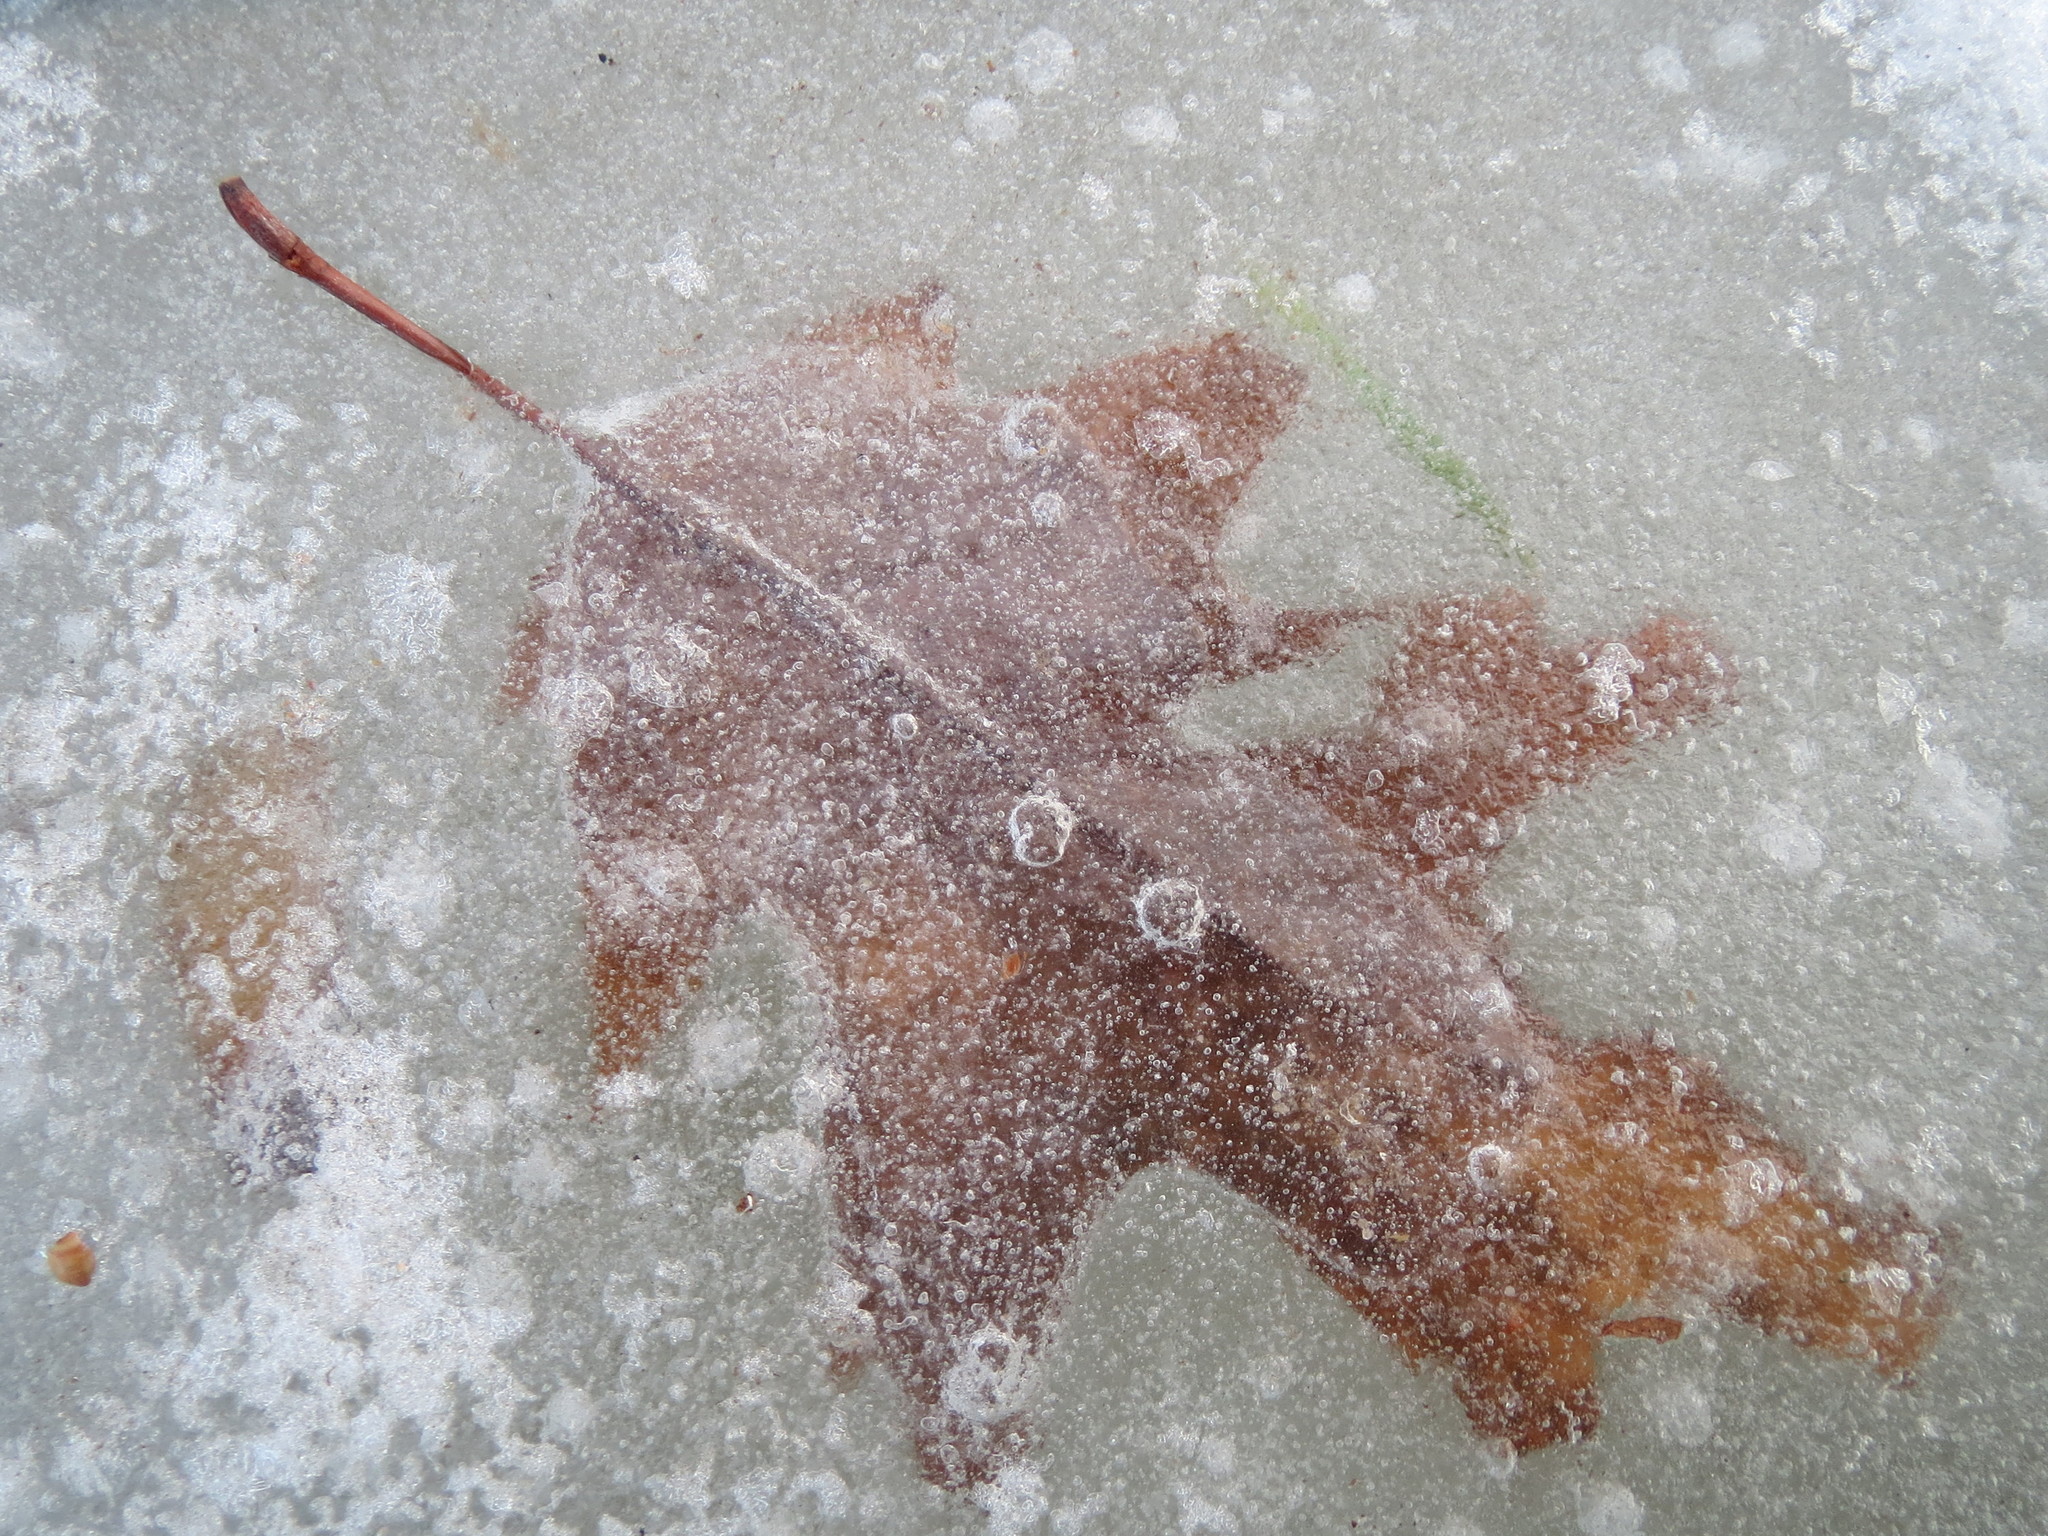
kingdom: Plantae
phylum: Tracheophyta
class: Magnoliopsida
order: Fagales
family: Fagaceae
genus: Quercus
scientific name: Quercus rubra
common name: Red oak
